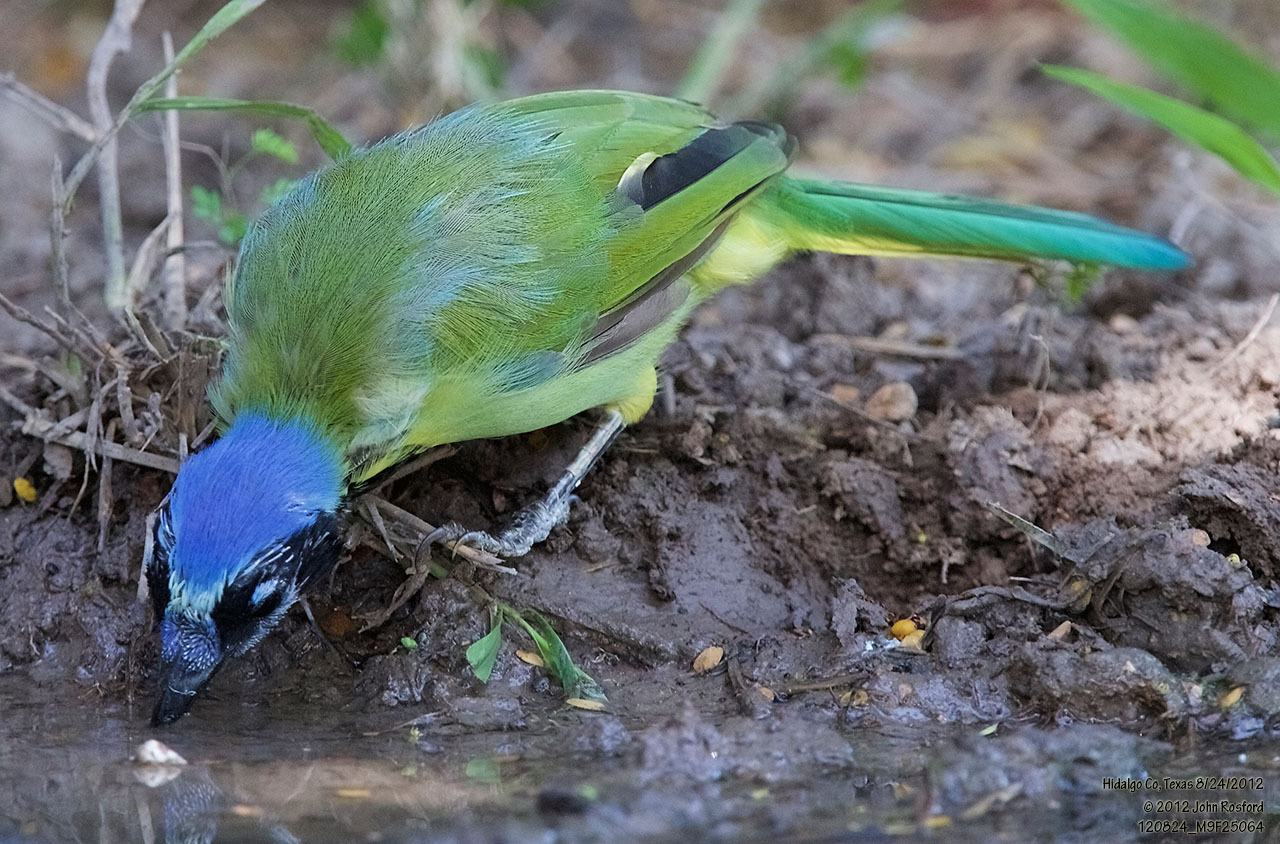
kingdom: Animalia
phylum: Chordata
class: Aves
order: Passeriformes
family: Corvidae
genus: Cyanocorax
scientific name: Cyanocorax yncas
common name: Green jay
